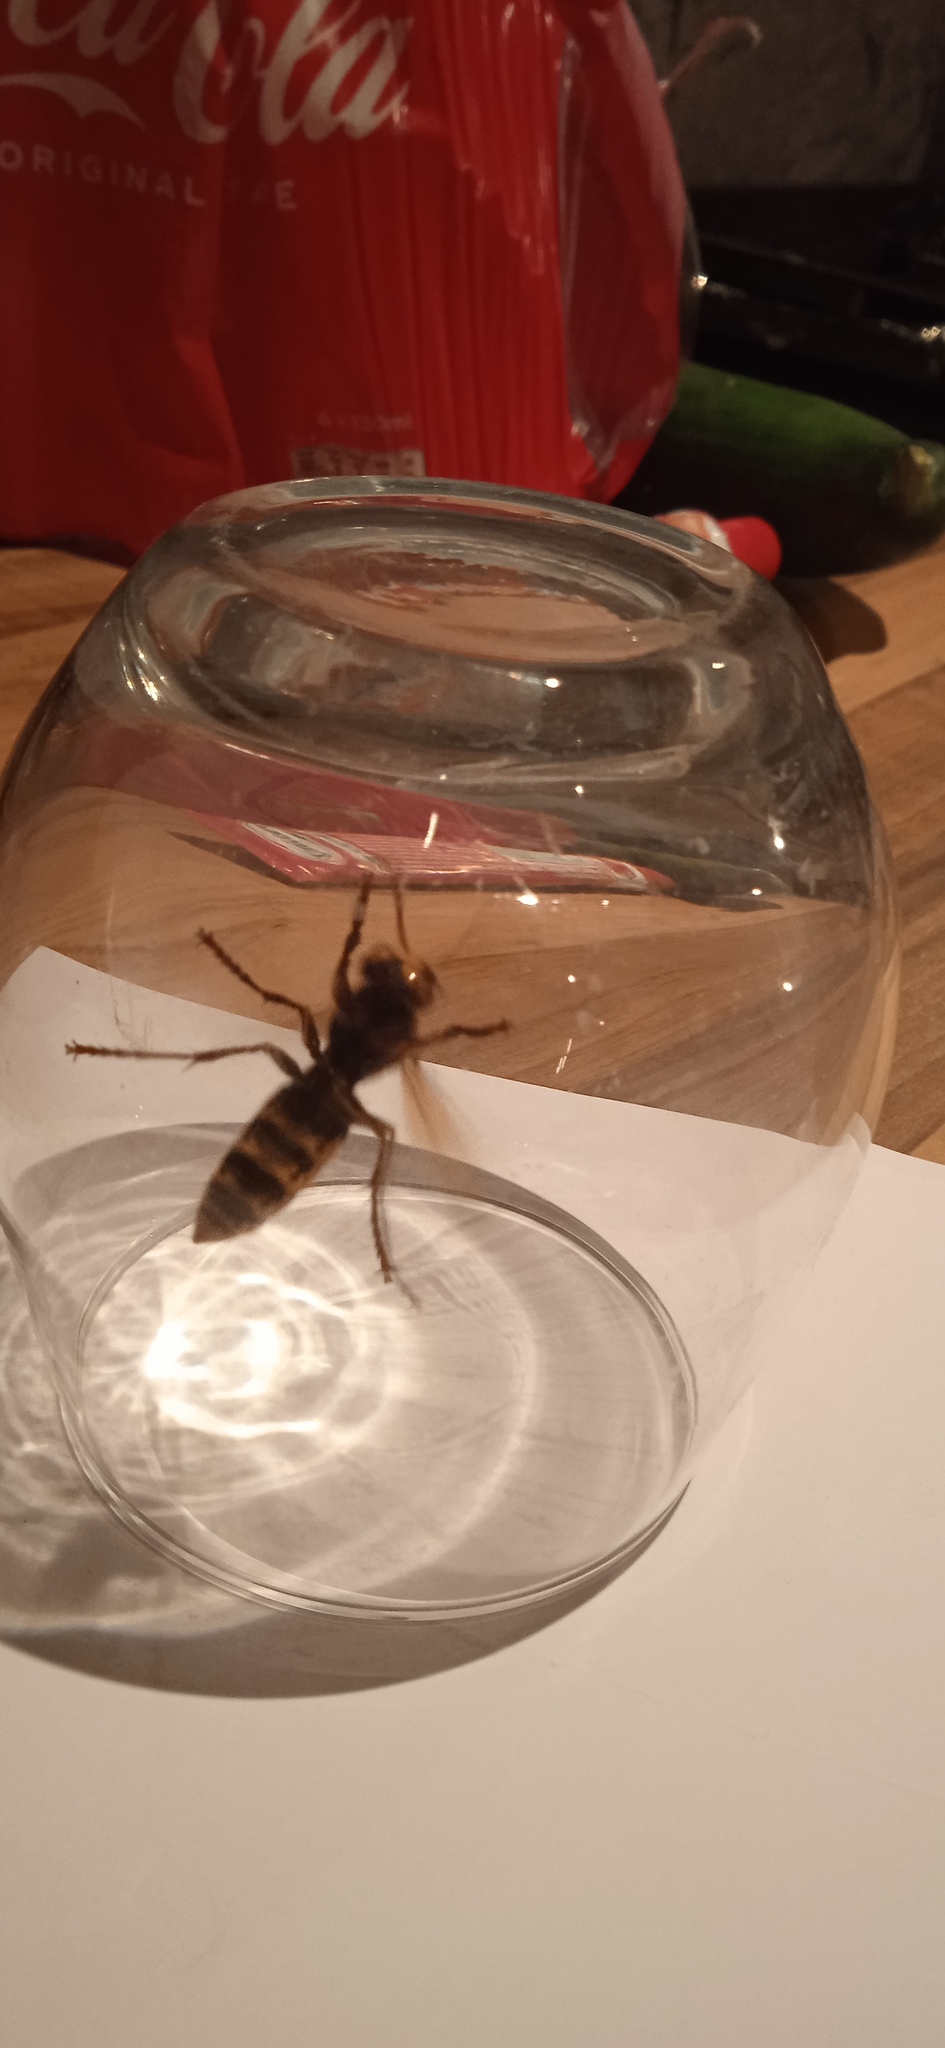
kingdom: Animalia
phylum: Arthropoda
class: Insecta
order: Hymenoptera
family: Vespidae
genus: Vespa
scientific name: Vespa crabro
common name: Hornet
